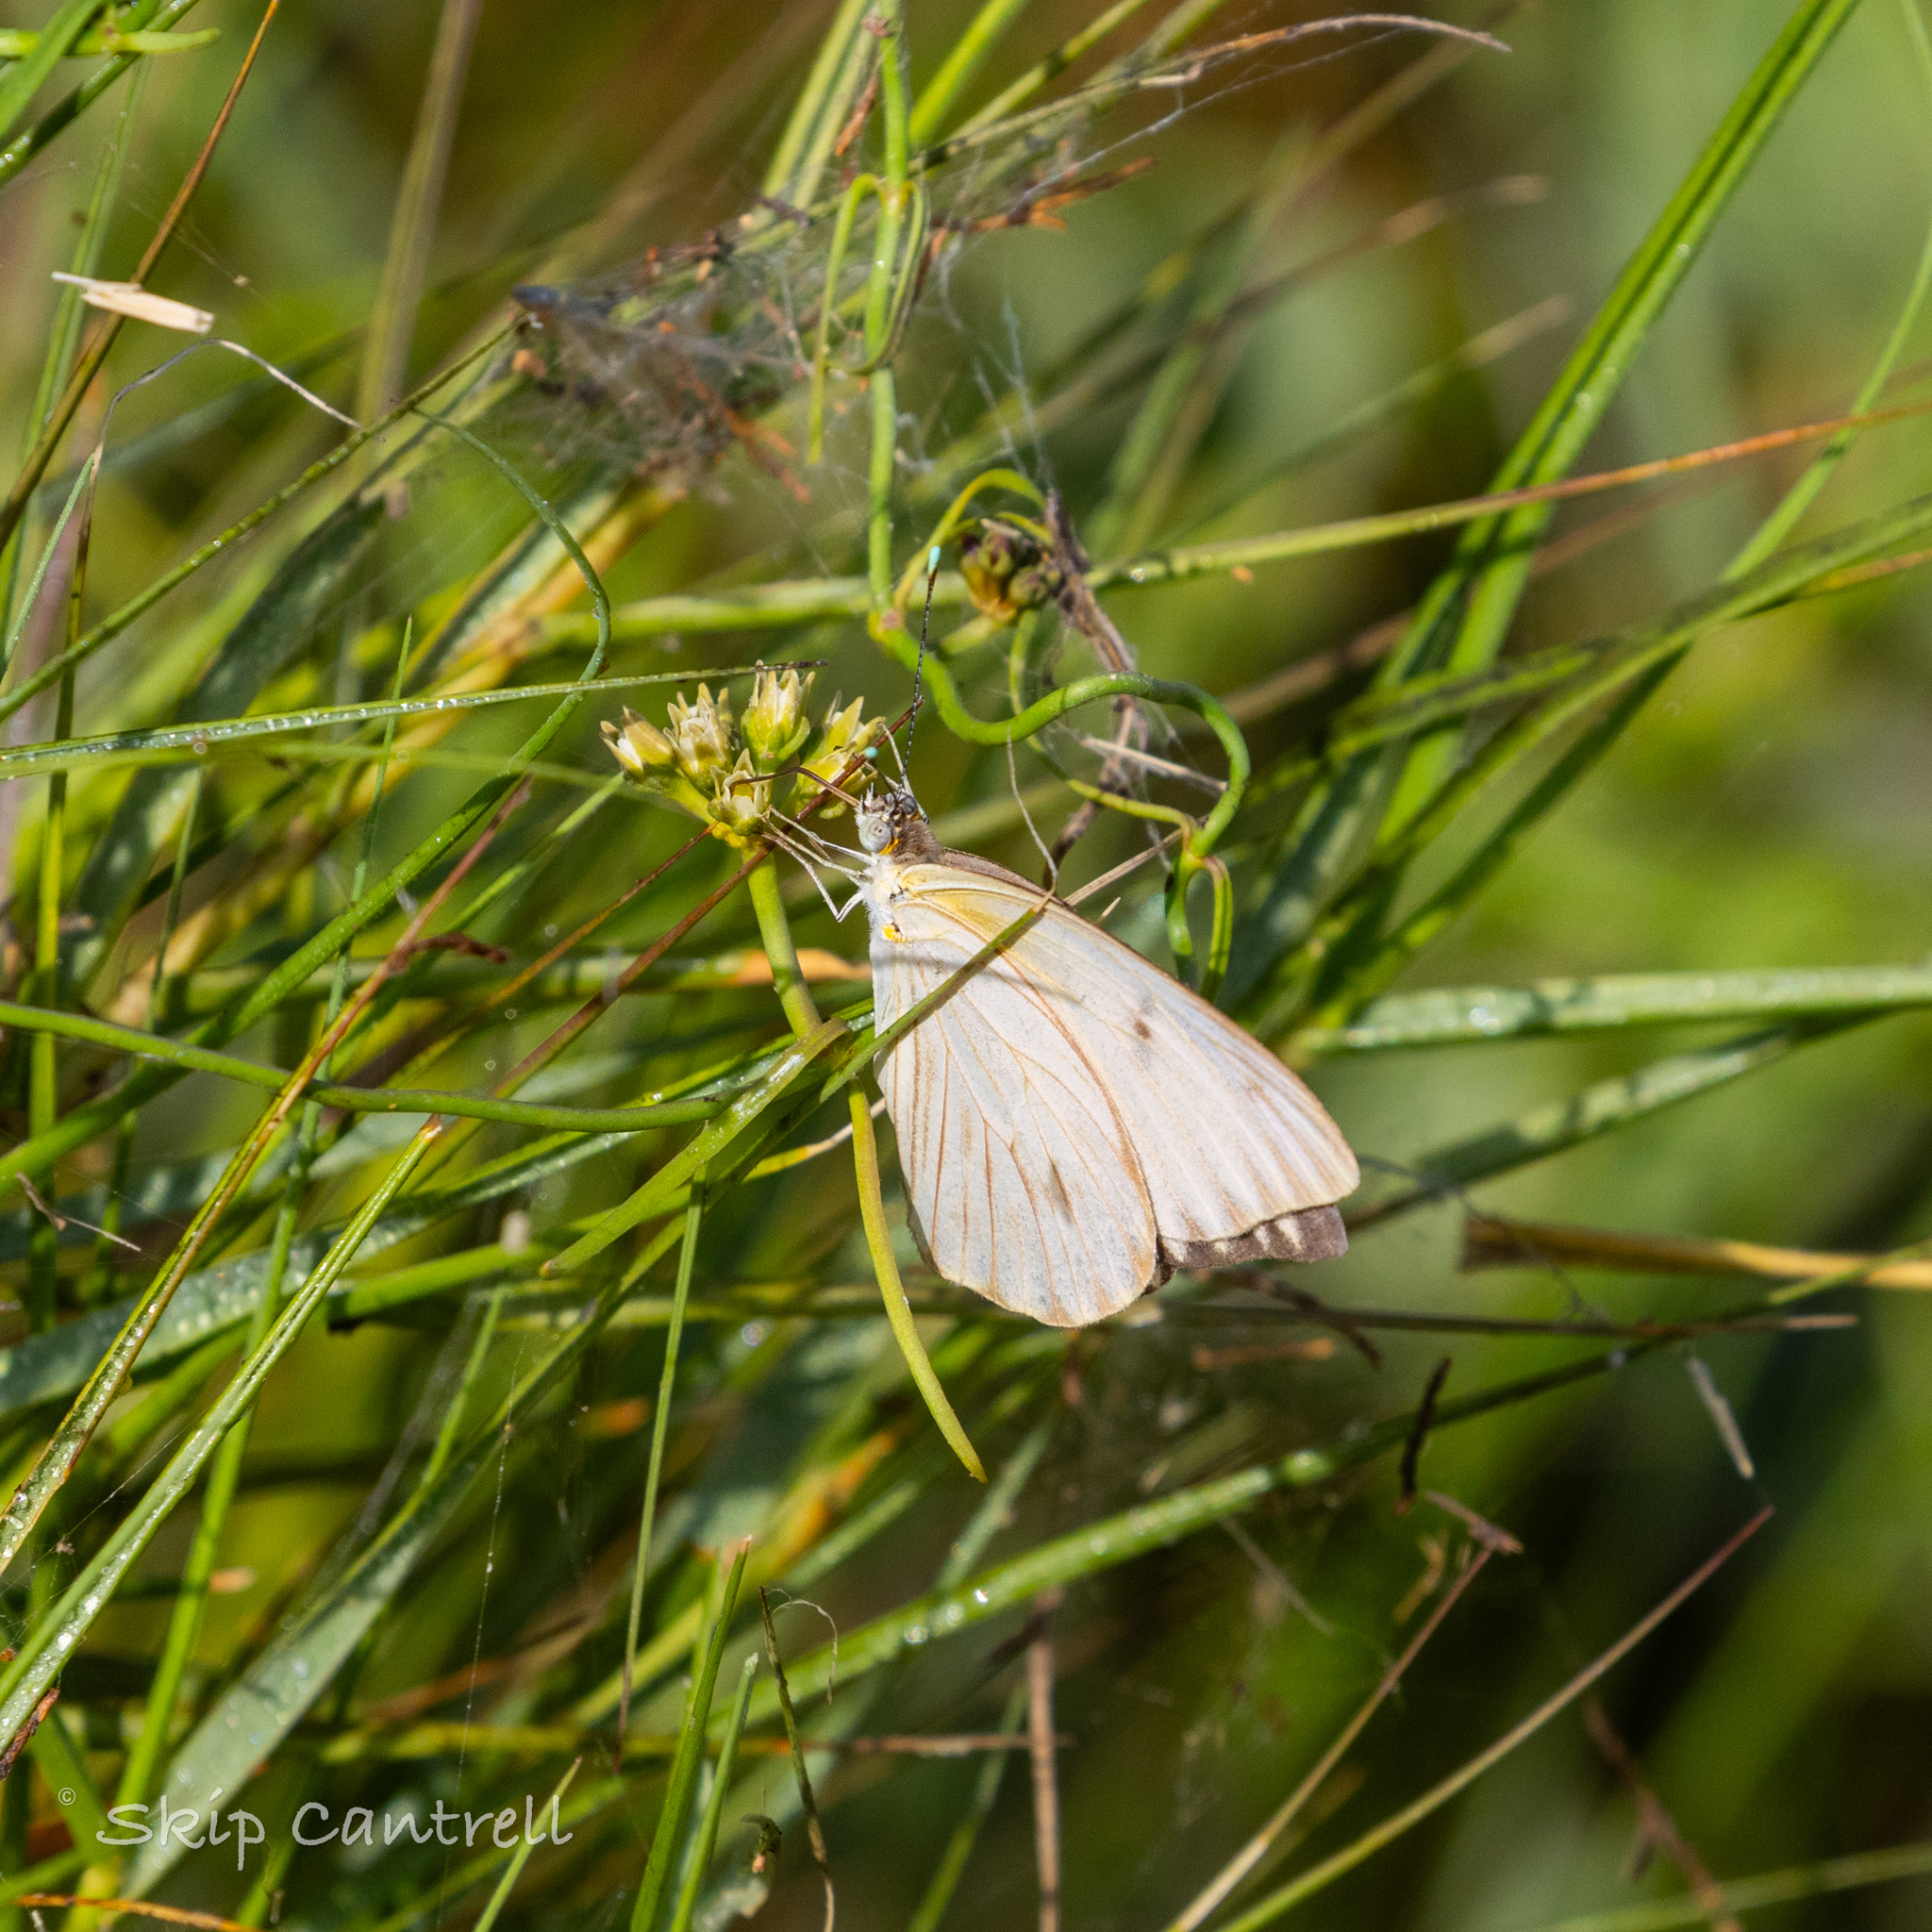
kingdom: Animalia
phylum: Arthropoda
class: Insecta
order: Lepidoptera
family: Pieridae
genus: Ascia
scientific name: Ascia monuste
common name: Great southern white
